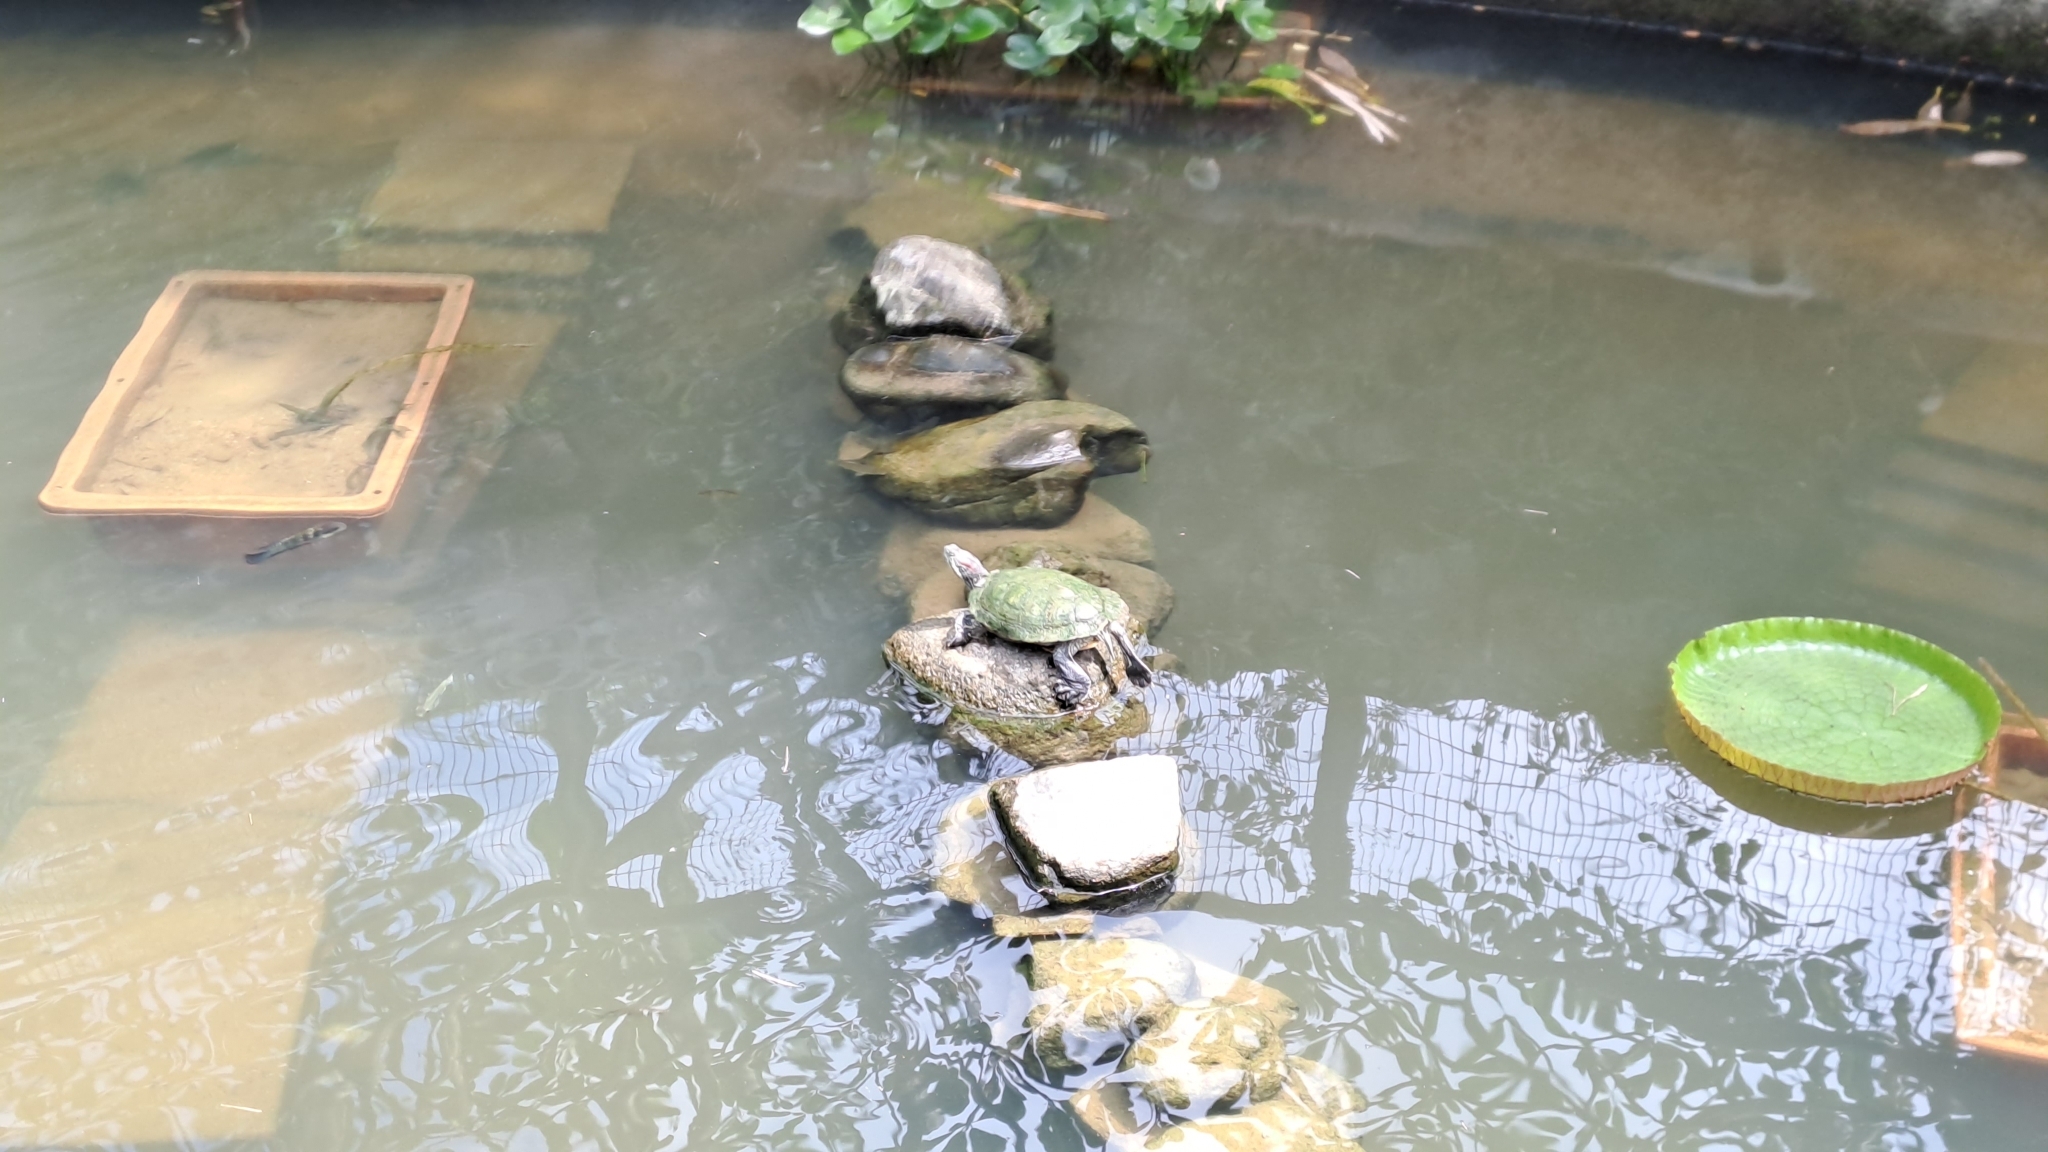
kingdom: Animalia
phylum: Chordata
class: Testudines
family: Emydidae
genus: Trachemys
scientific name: Trachemys scripta
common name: Slider
